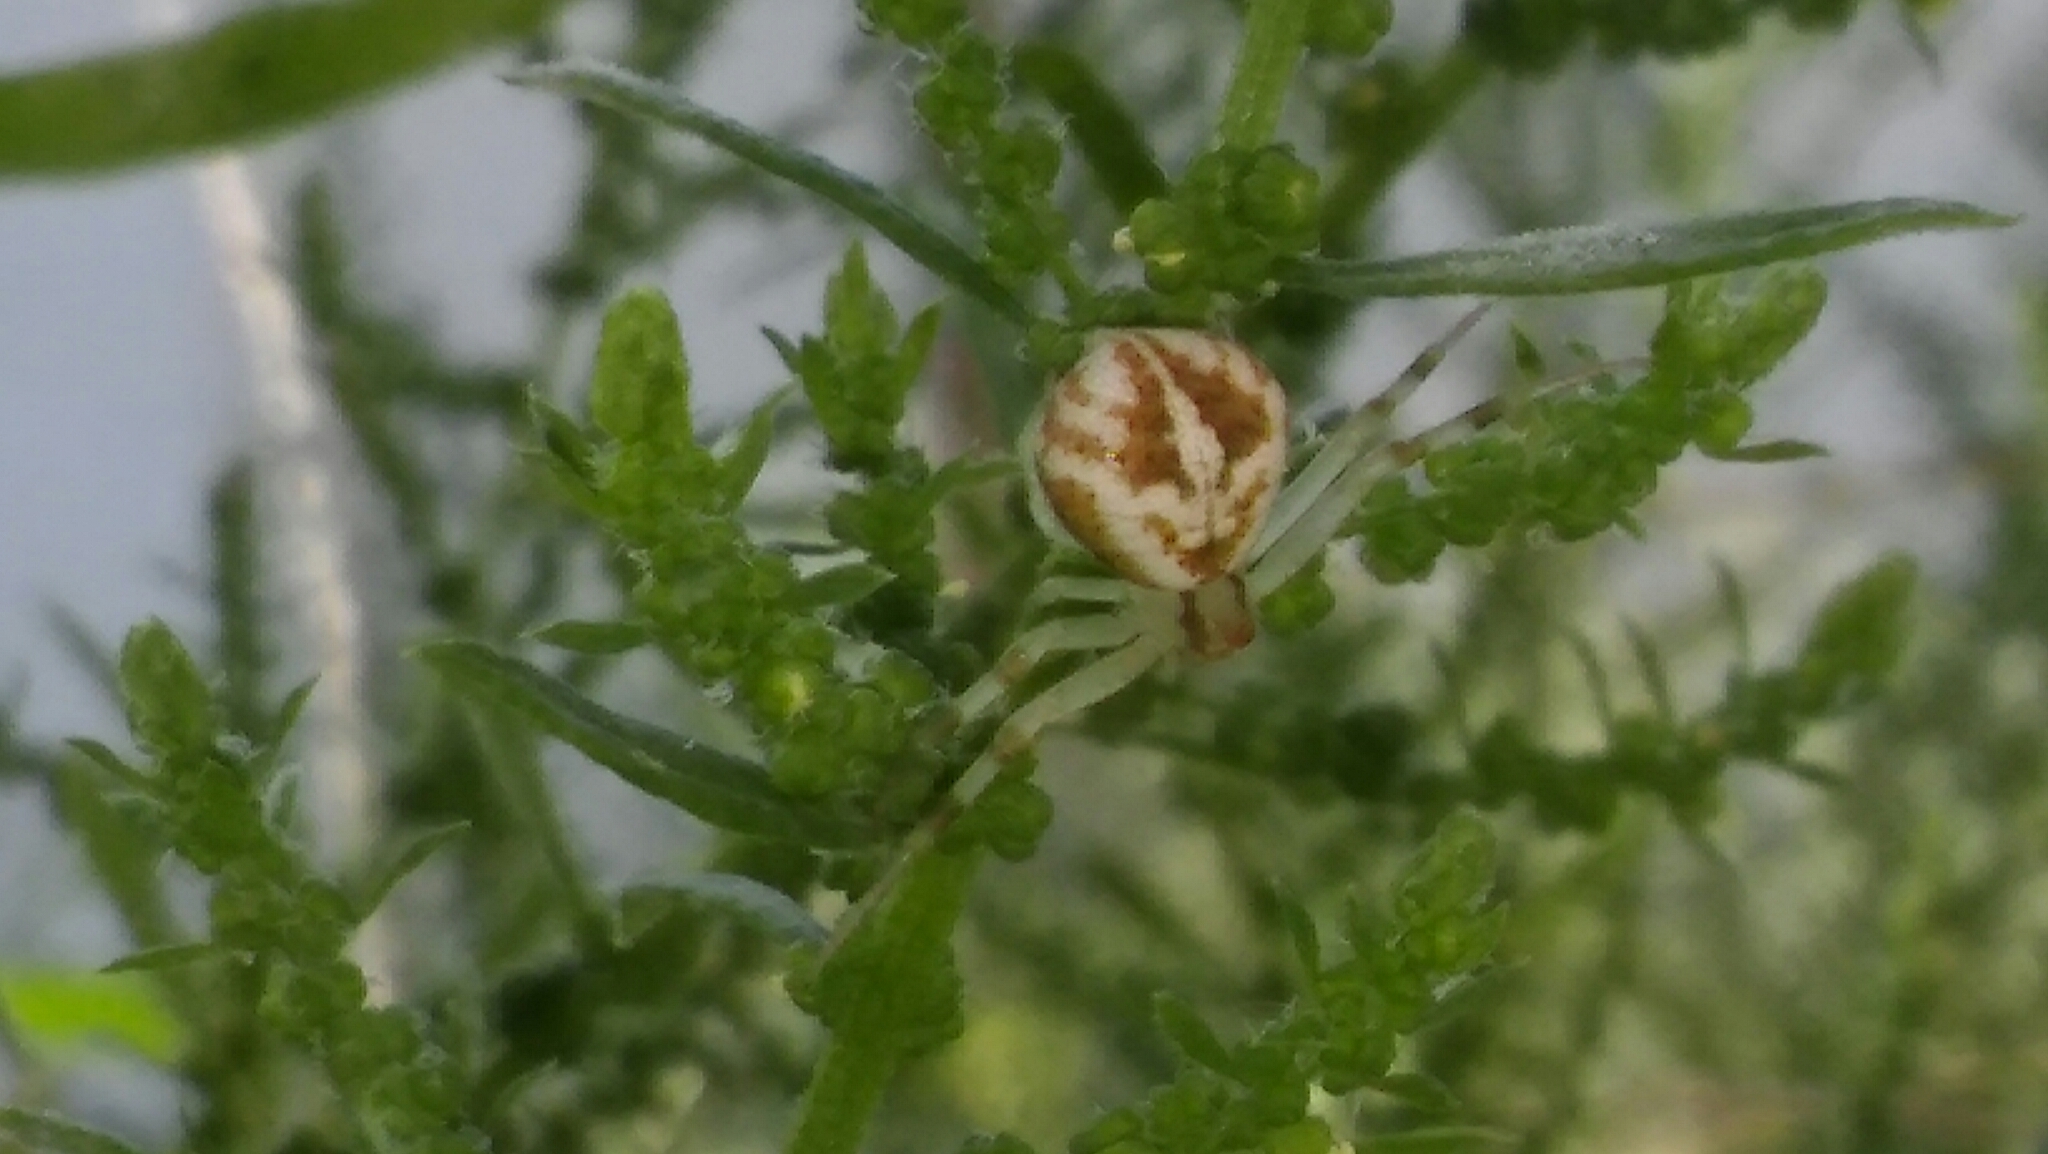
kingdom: Animalia
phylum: Arthropoda
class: Arachnida
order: Araneae
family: Thomisidae
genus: Misumenops
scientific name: Misumenops
